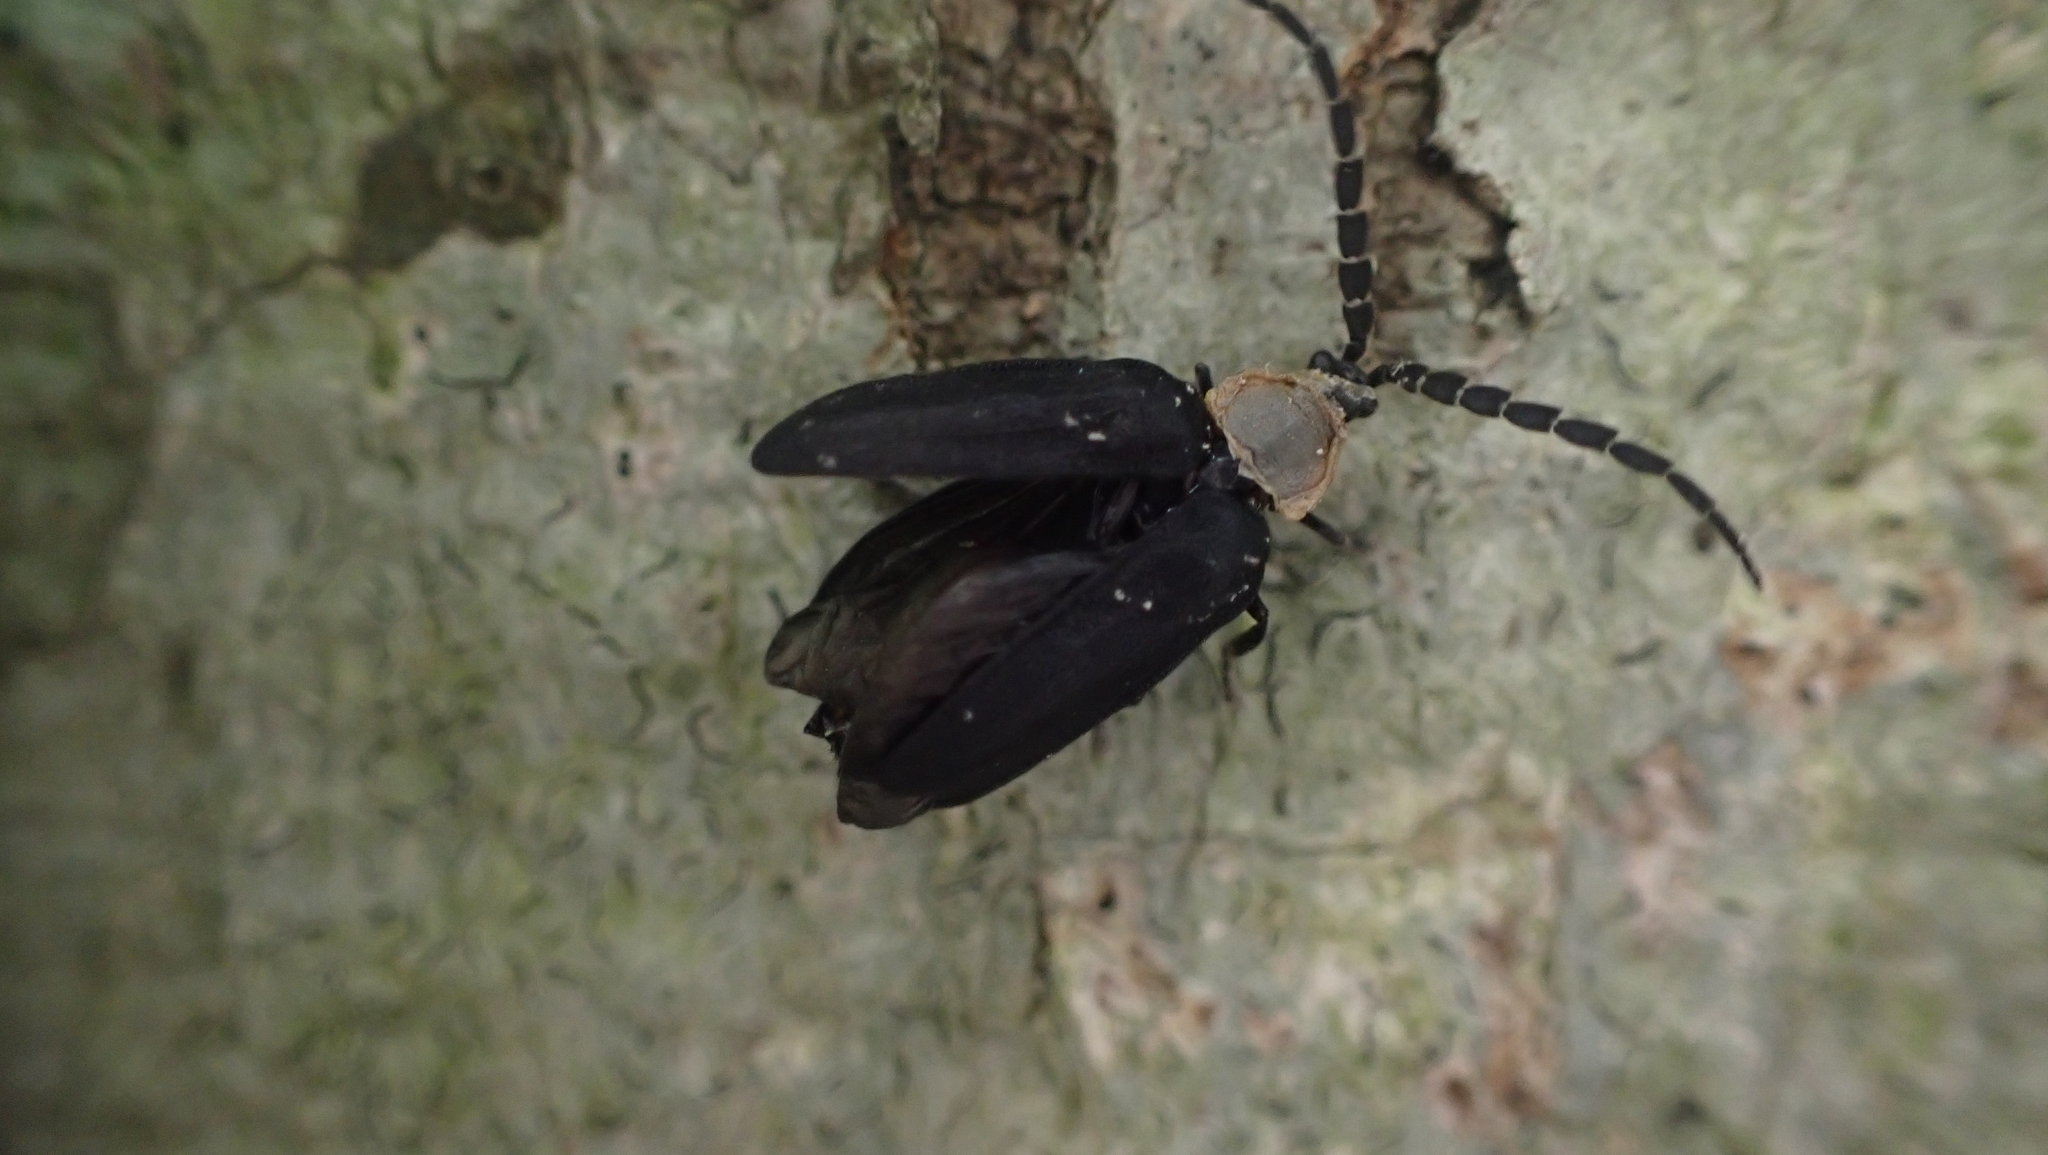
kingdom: Animalia
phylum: Arthropoda
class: Insecta
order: Coleoptera
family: Lampyridae
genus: Lucidota
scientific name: Lucidota atra
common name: Black firefly
